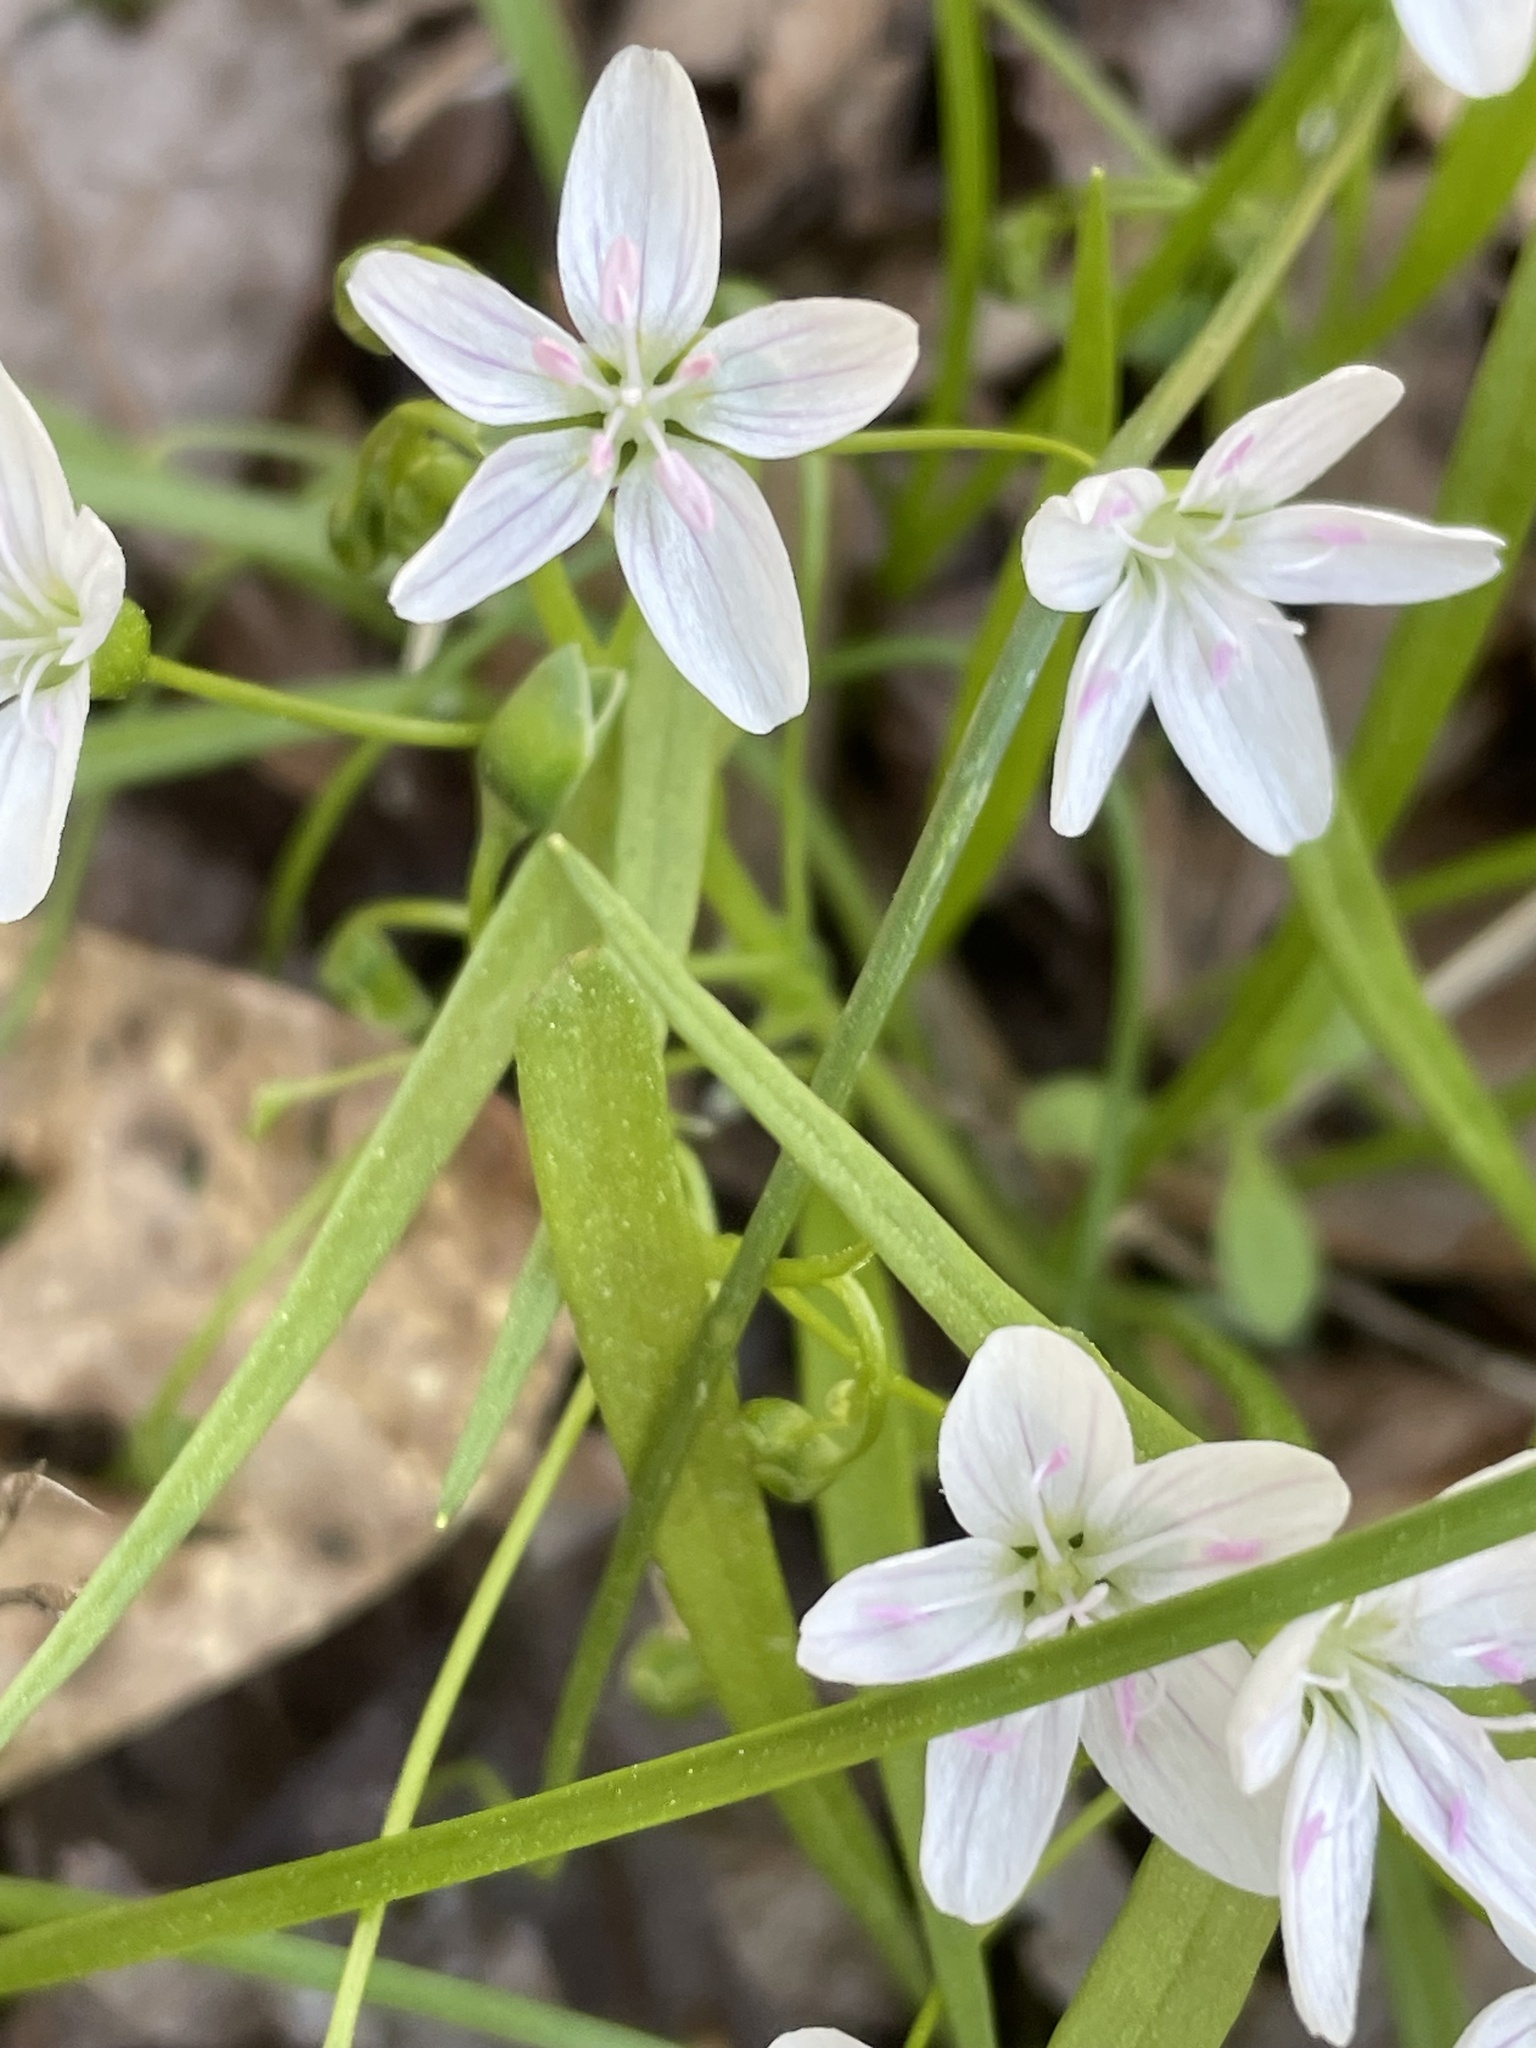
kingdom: Plantae
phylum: Tracheophyta
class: Magnoliopsida
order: Caryophyllales
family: Montiaceae
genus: Claytonia
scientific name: Claytonia virginica
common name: Virginia springbeauty
